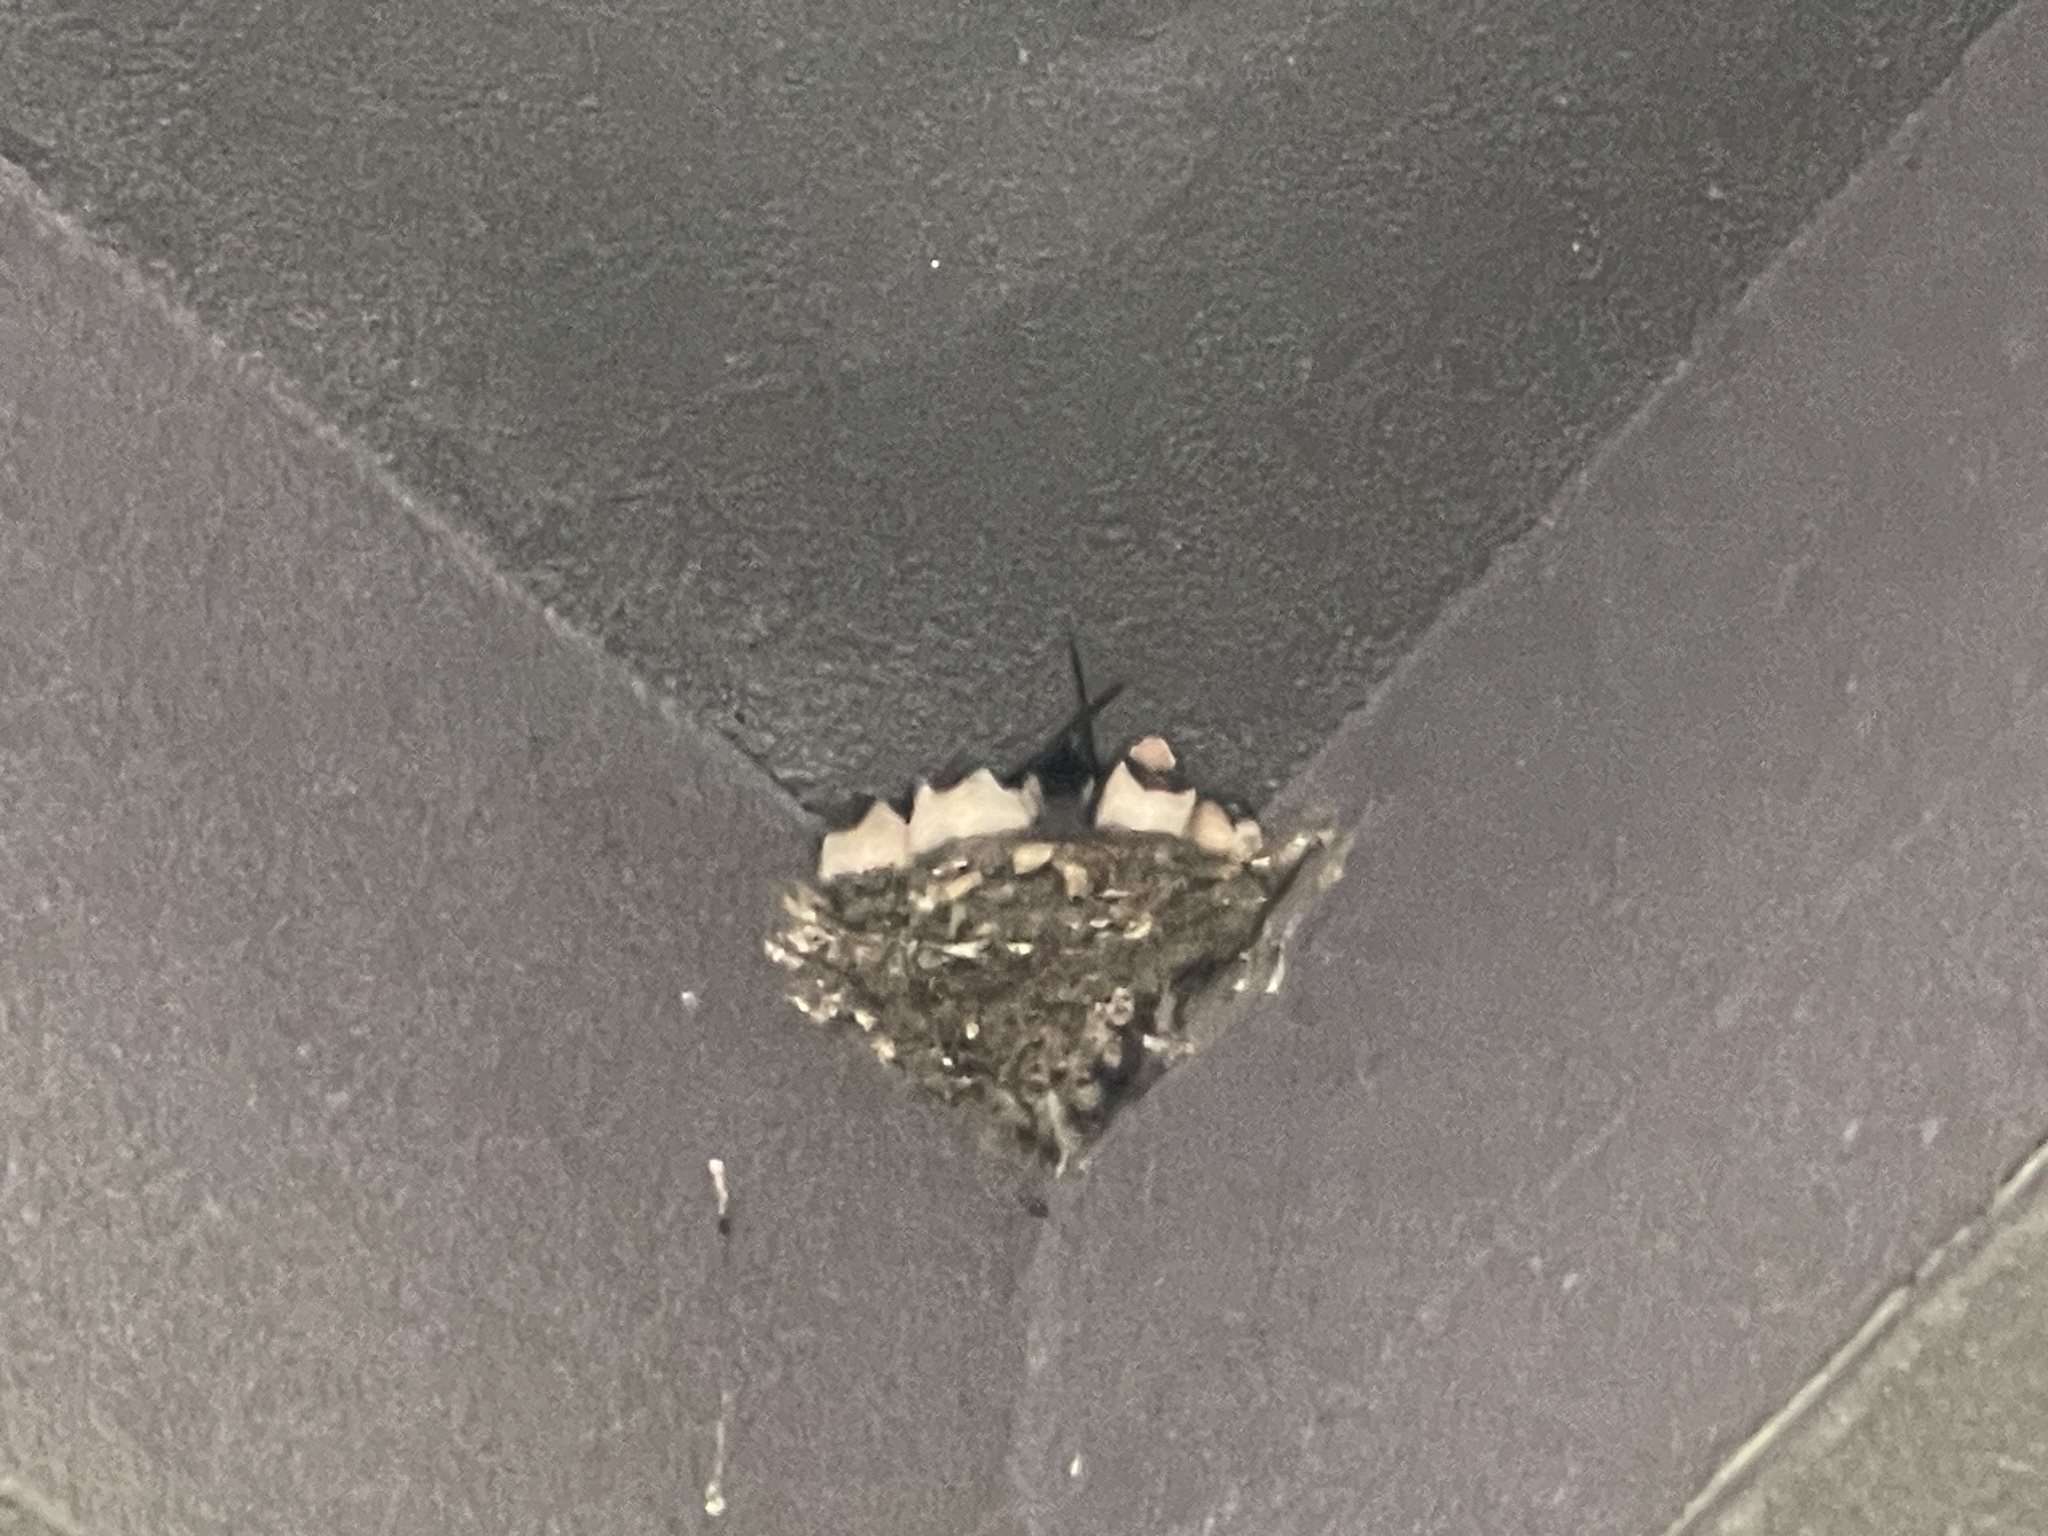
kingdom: Animalia
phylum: Chordata
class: Aves
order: Passeriformes
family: Hirundinidae
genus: Hirundo
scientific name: Hirundo rustica
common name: Barn swallow
